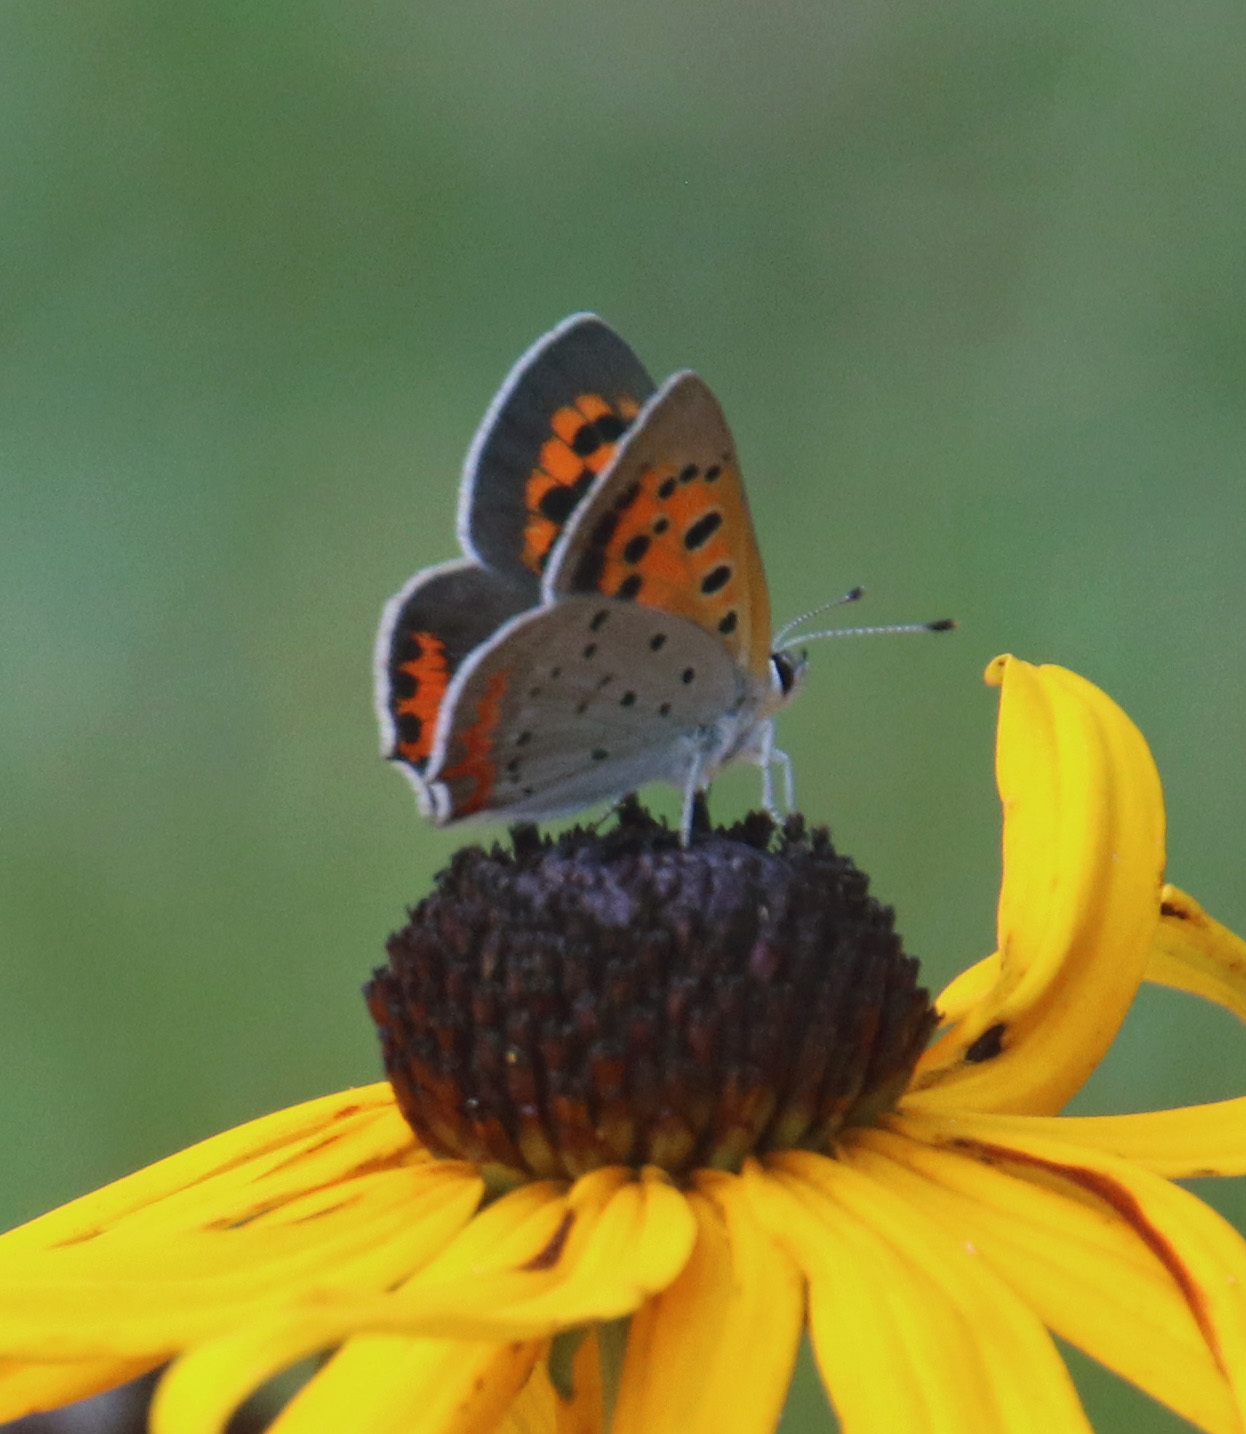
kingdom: Animalia
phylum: Arthropoda
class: Insecta
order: Lepidoptera
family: Lycaenidae
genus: Lycaena
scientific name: Lycaena hypophlaeas
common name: American copper
